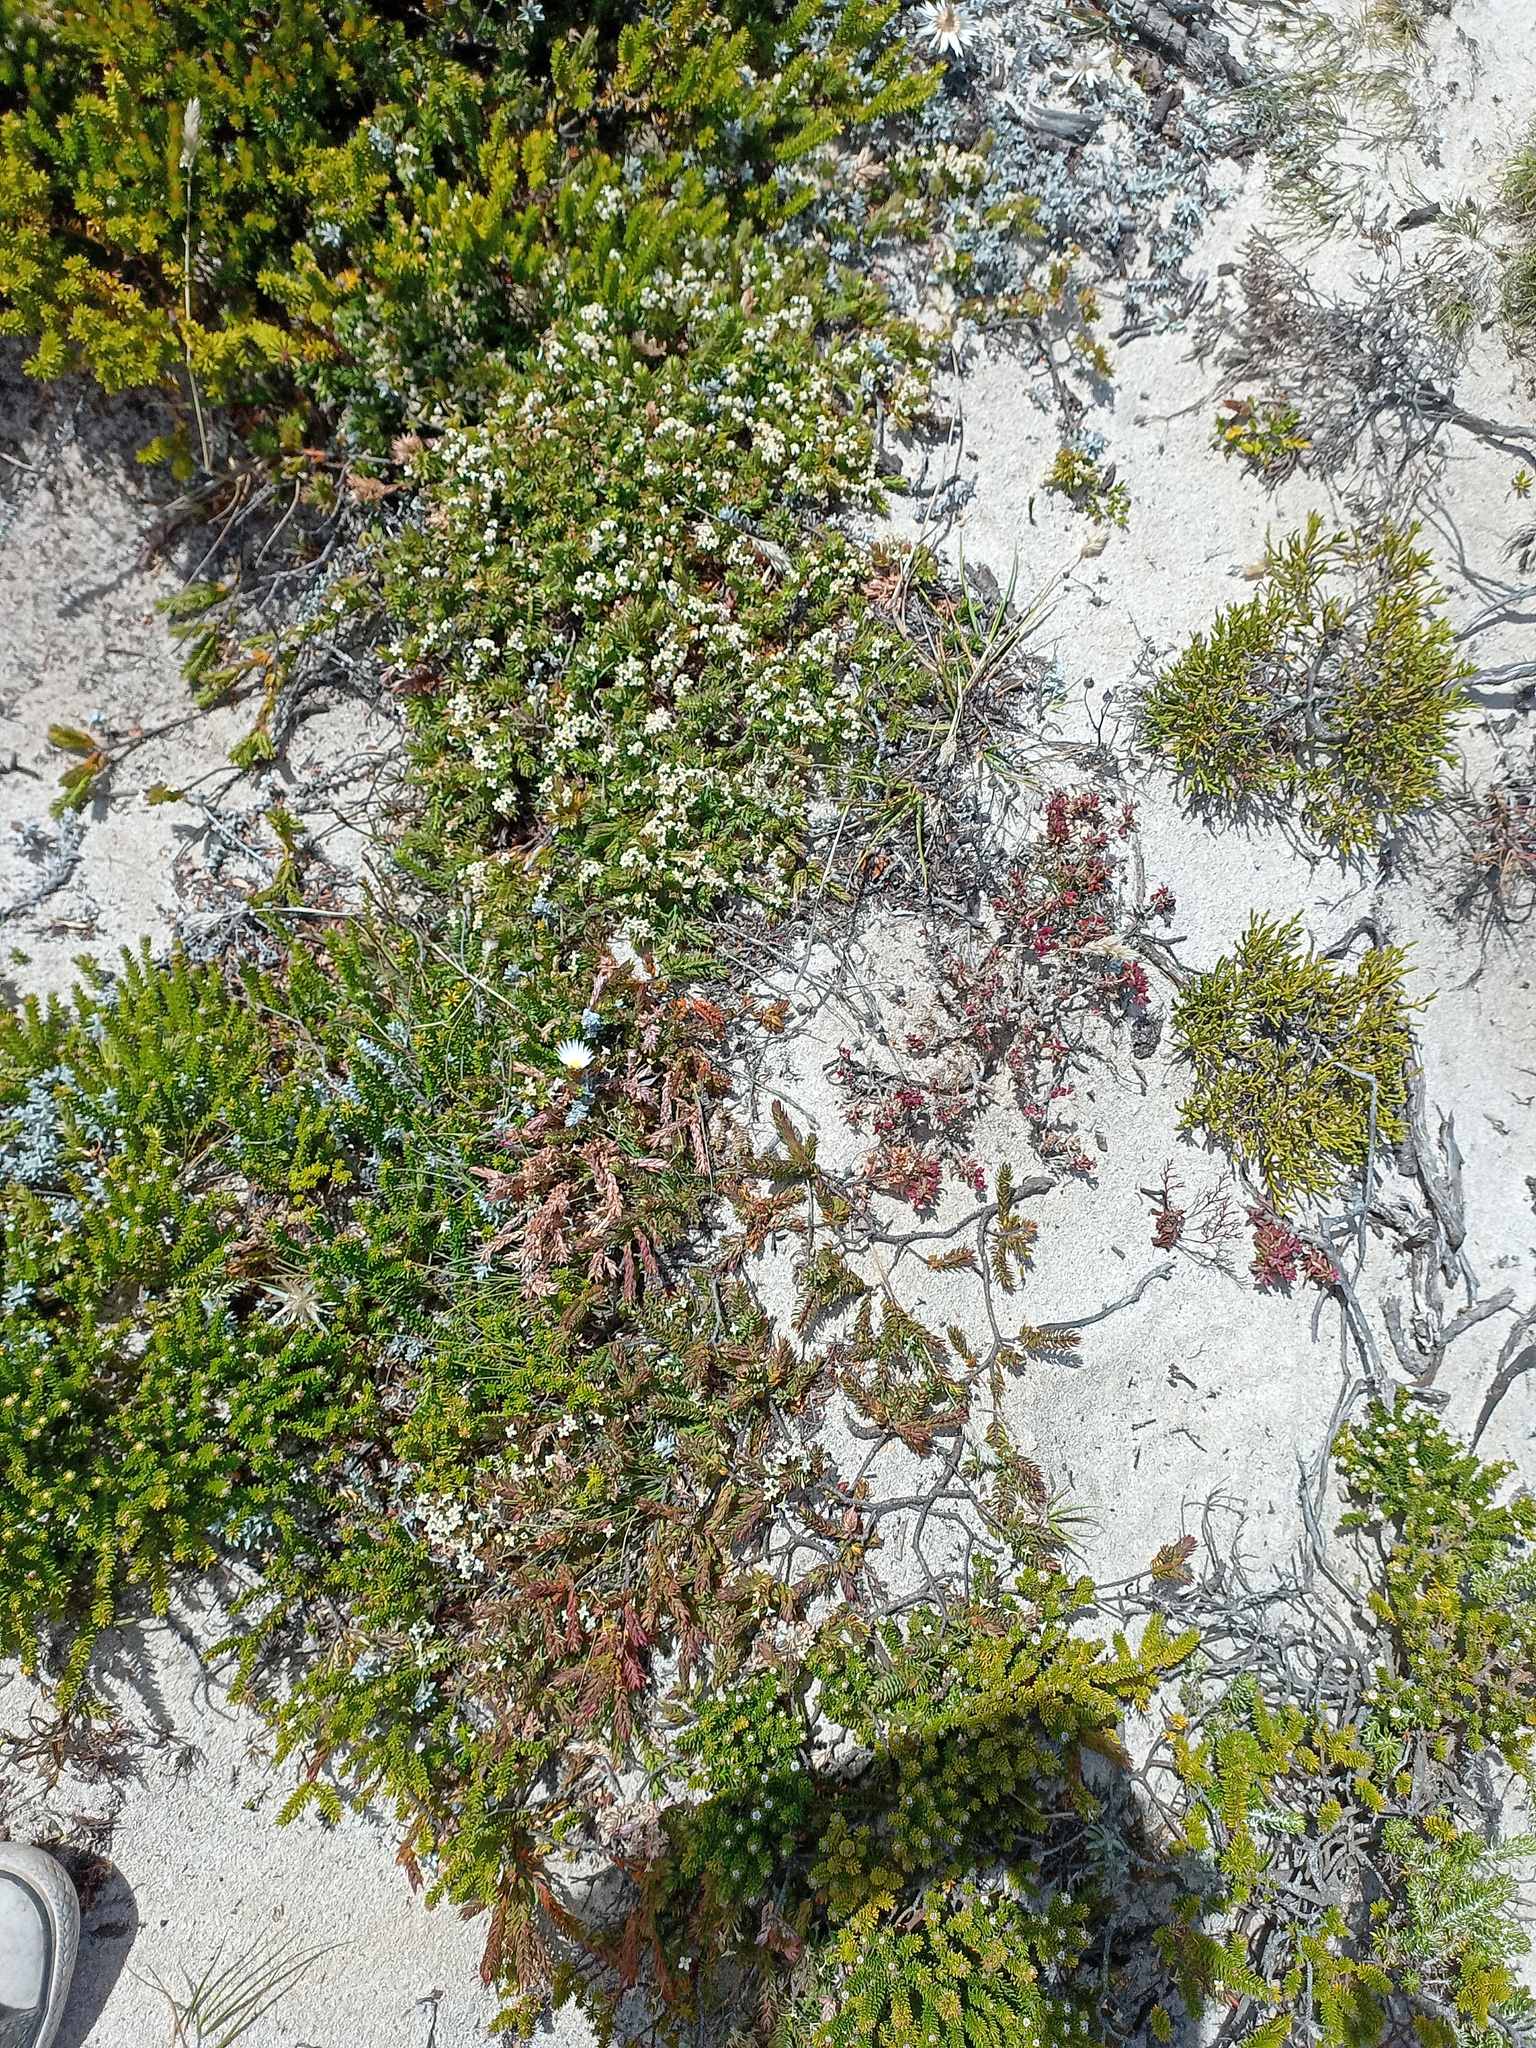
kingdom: Plantae
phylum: Tracheophyta
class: Magnoliopsida
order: Malvales
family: Thymelaeaceae
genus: Struthiola
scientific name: Struthiola salteri
